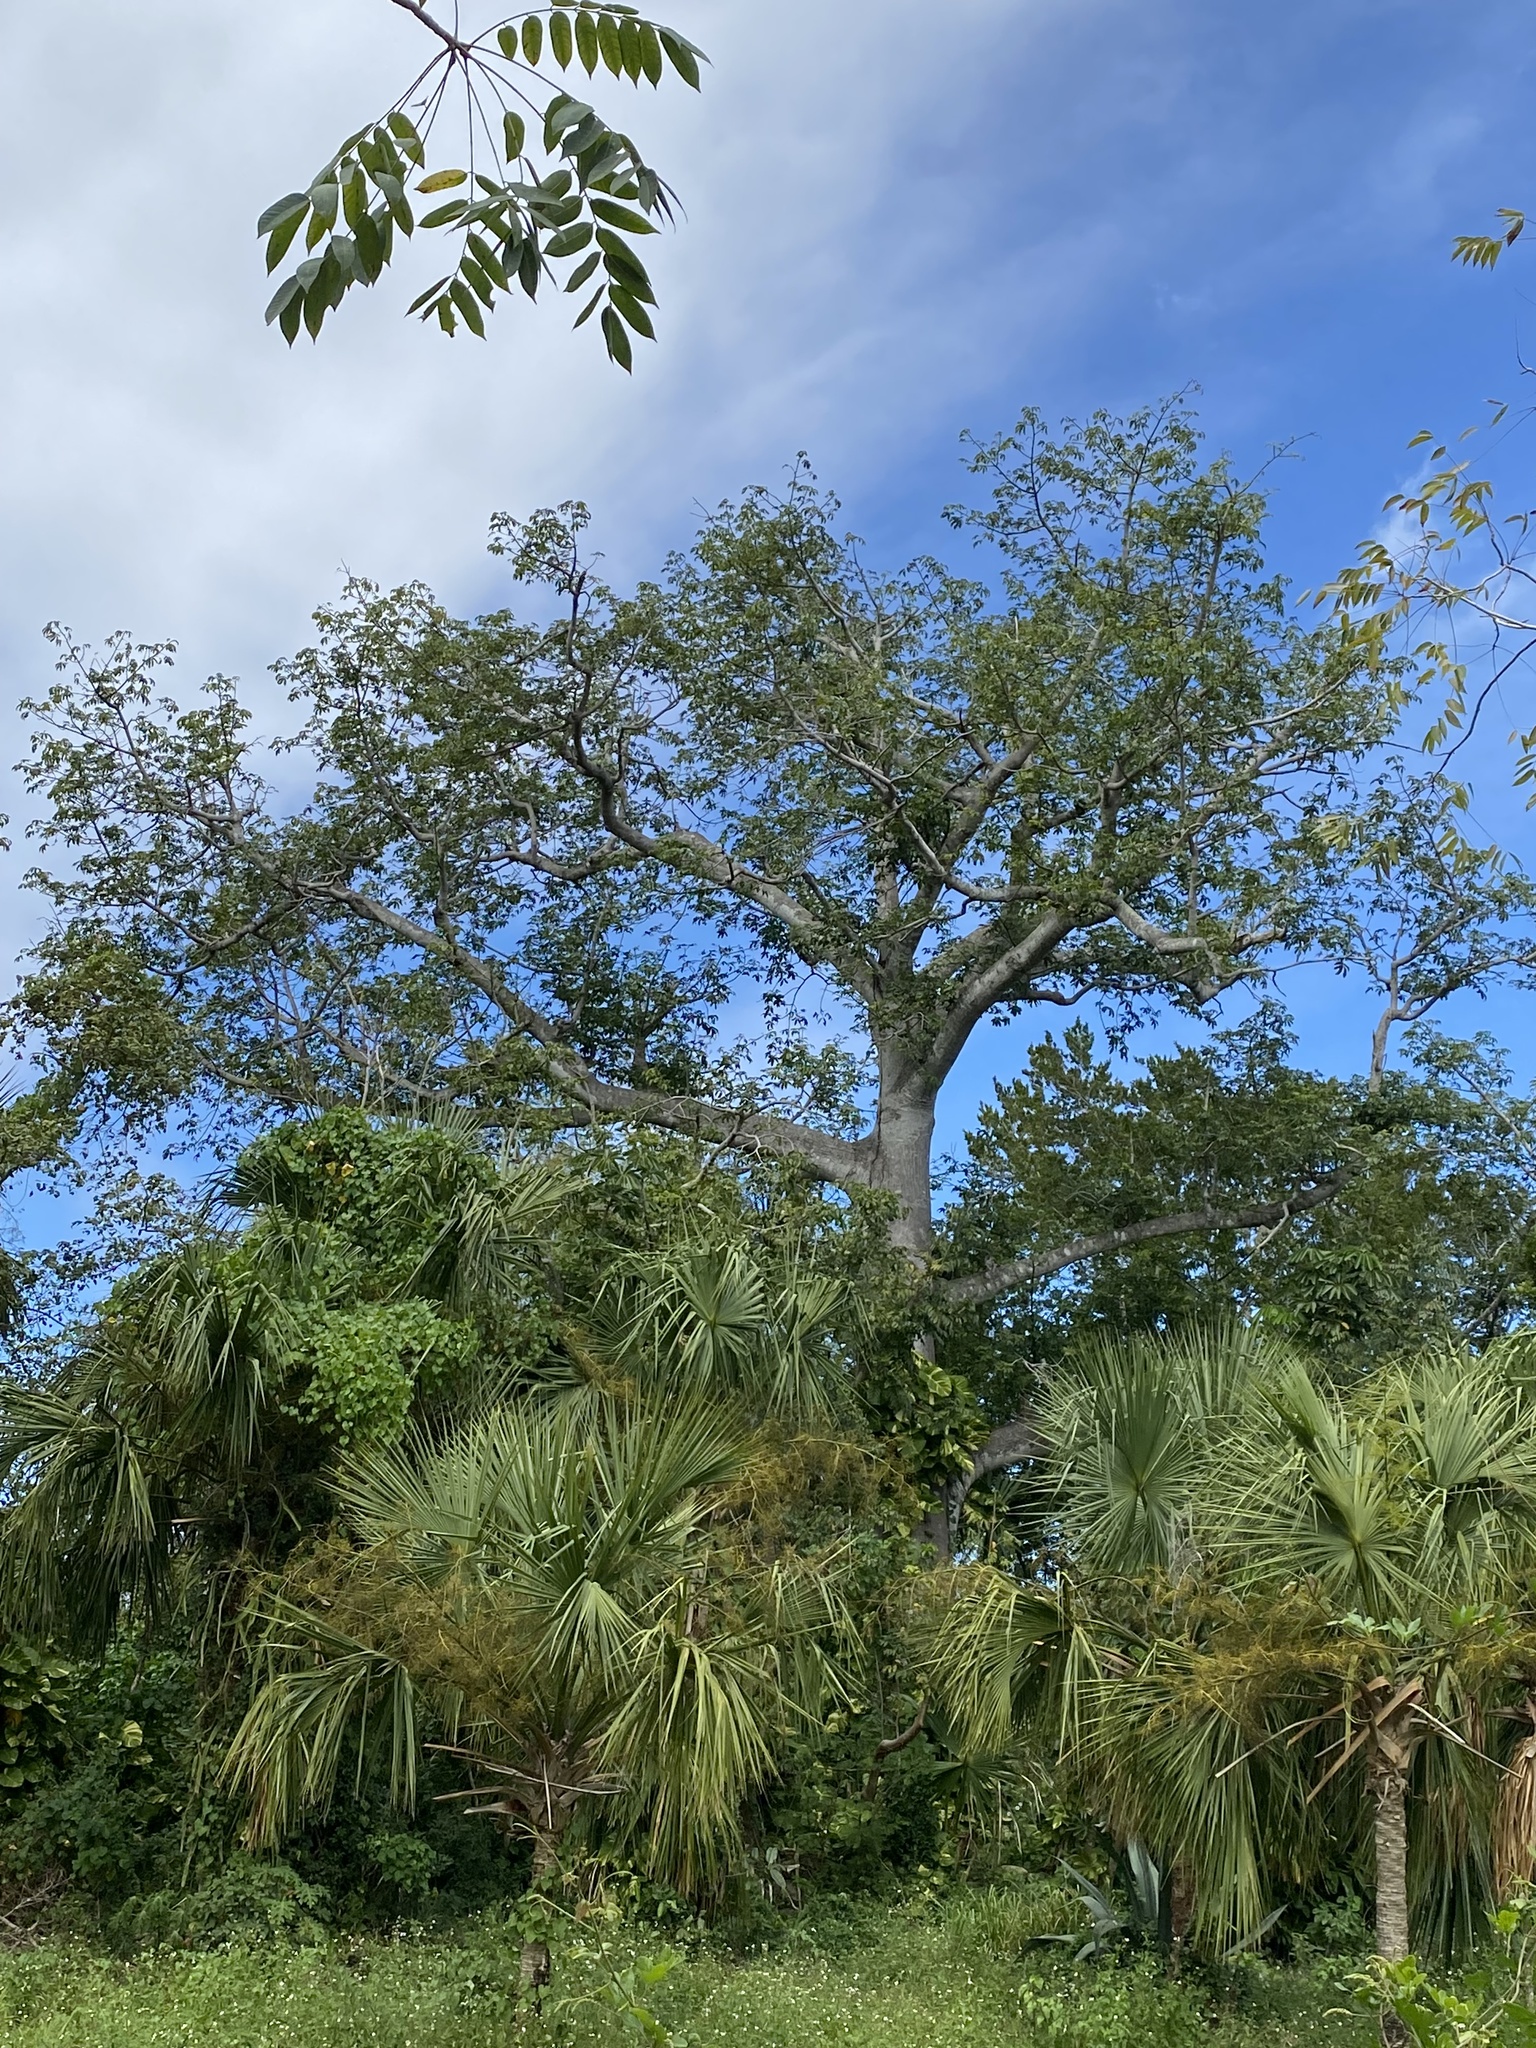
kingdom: Plantae
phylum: Tracheophyta
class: Magnoliopsida
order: Malvales
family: Malvaceae
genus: Ceiba
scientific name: Ceiba pentandra
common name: Kapok
